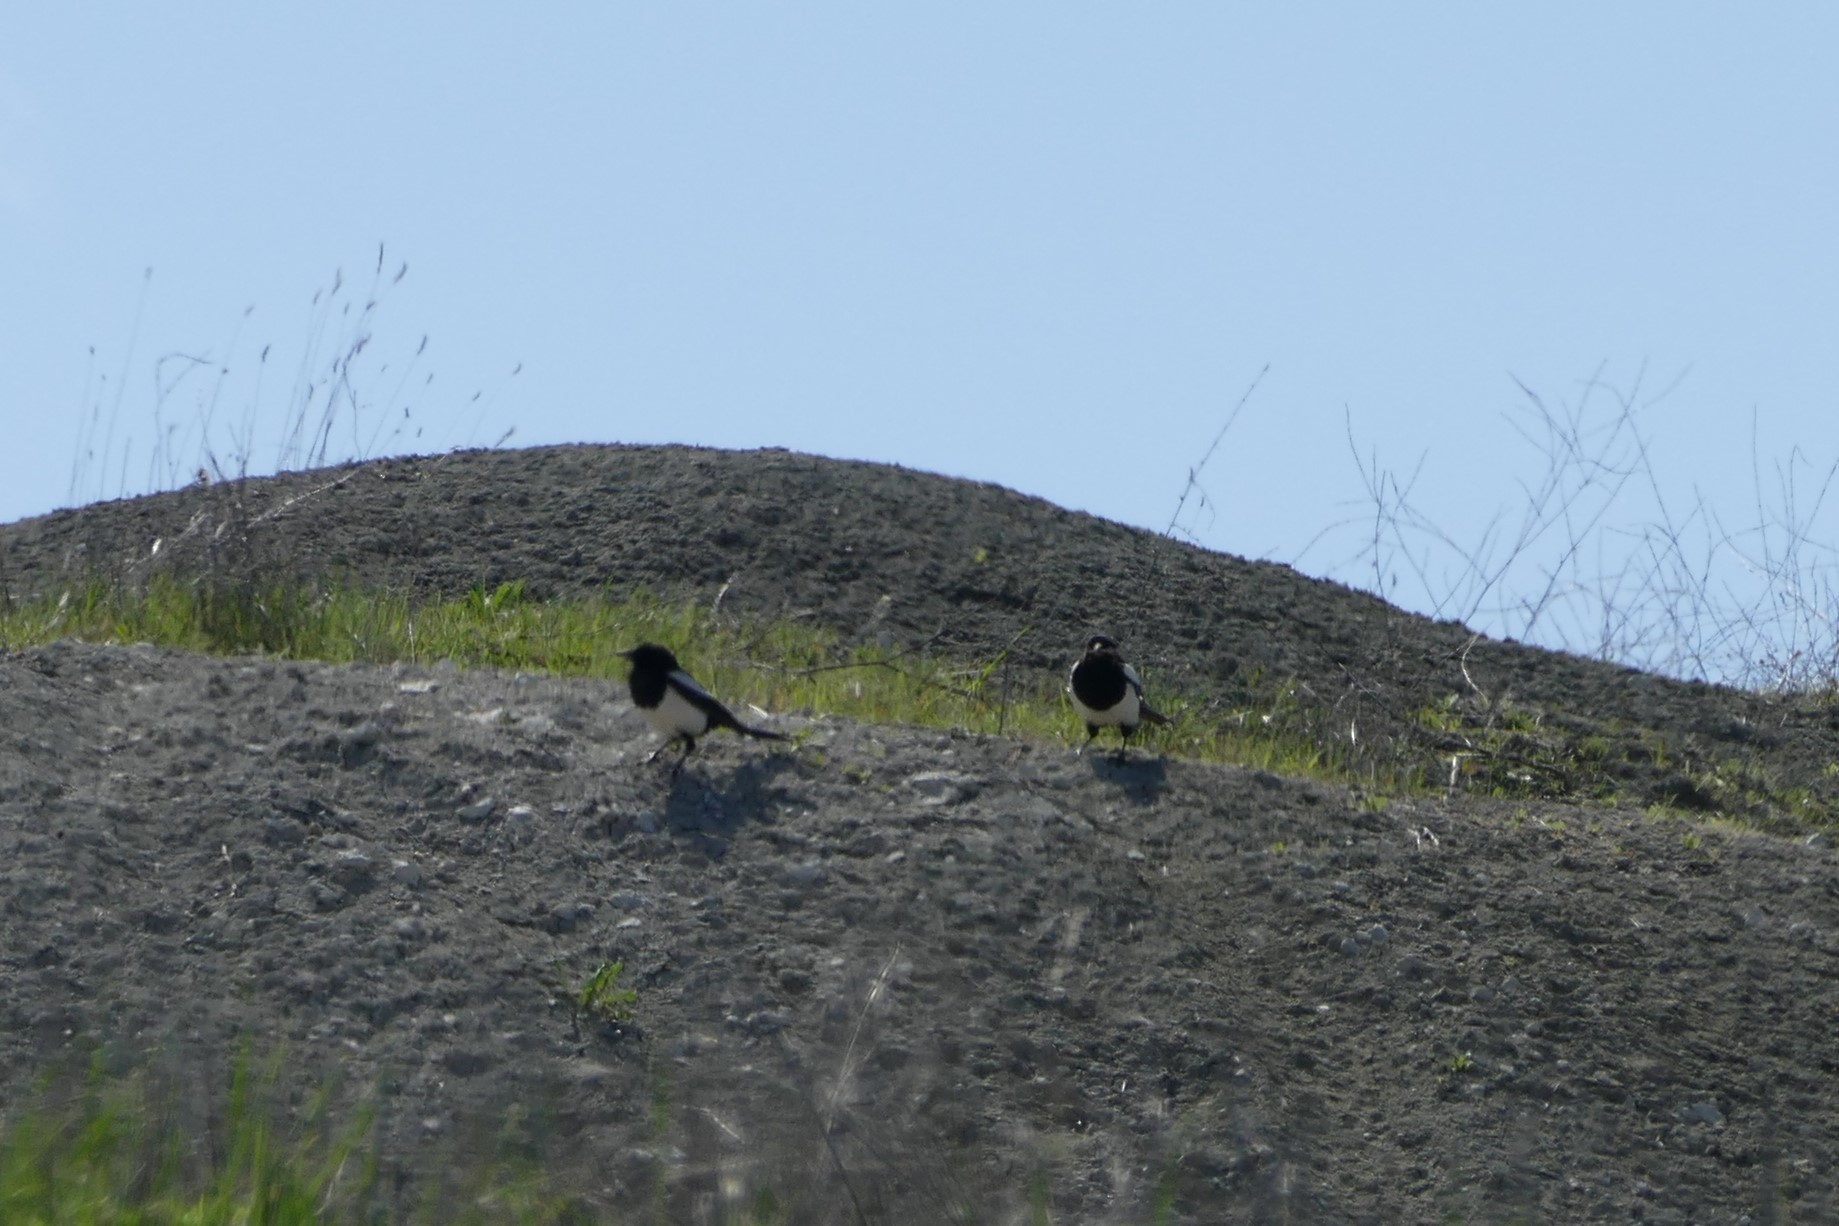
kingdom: Animalia
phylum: Chordata
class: Aves
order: Passeriformes
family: Corvidae
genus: Pica
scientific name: Pica pica
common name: Eurasian magpie
